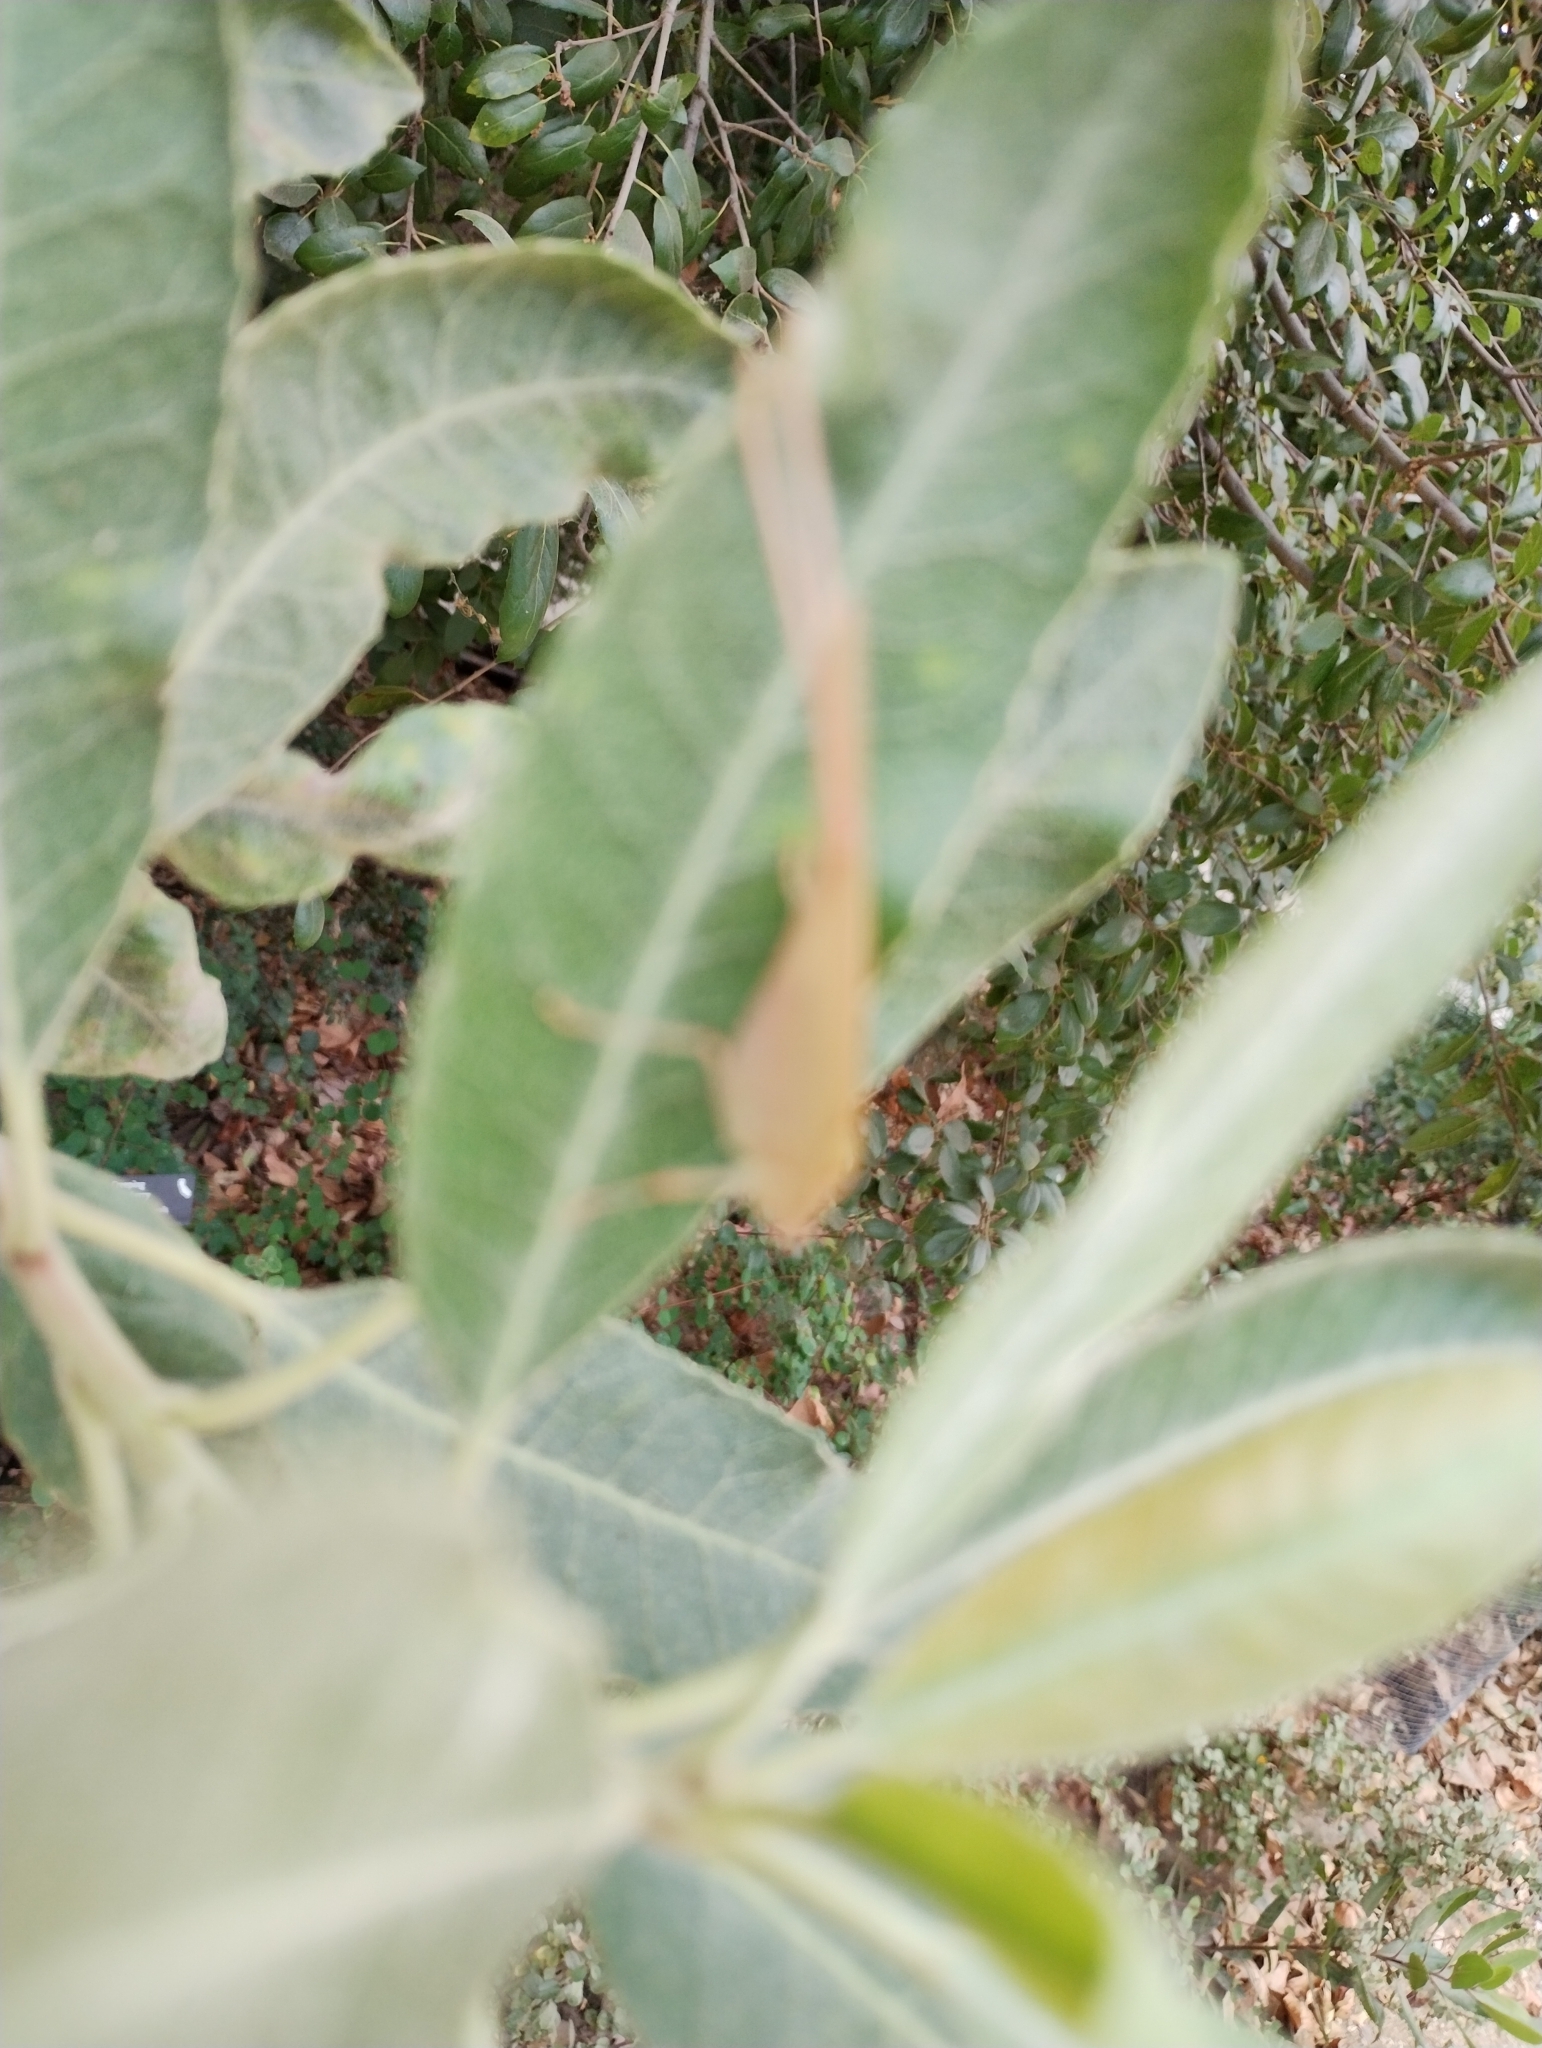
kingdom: Animalia
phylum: Arthropoda
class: Insecta
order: Orthoptera
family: Tettigoniidae
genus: Phaneroptera
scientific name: Phaneroptera nana
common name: Southern sickle bush-cricket
